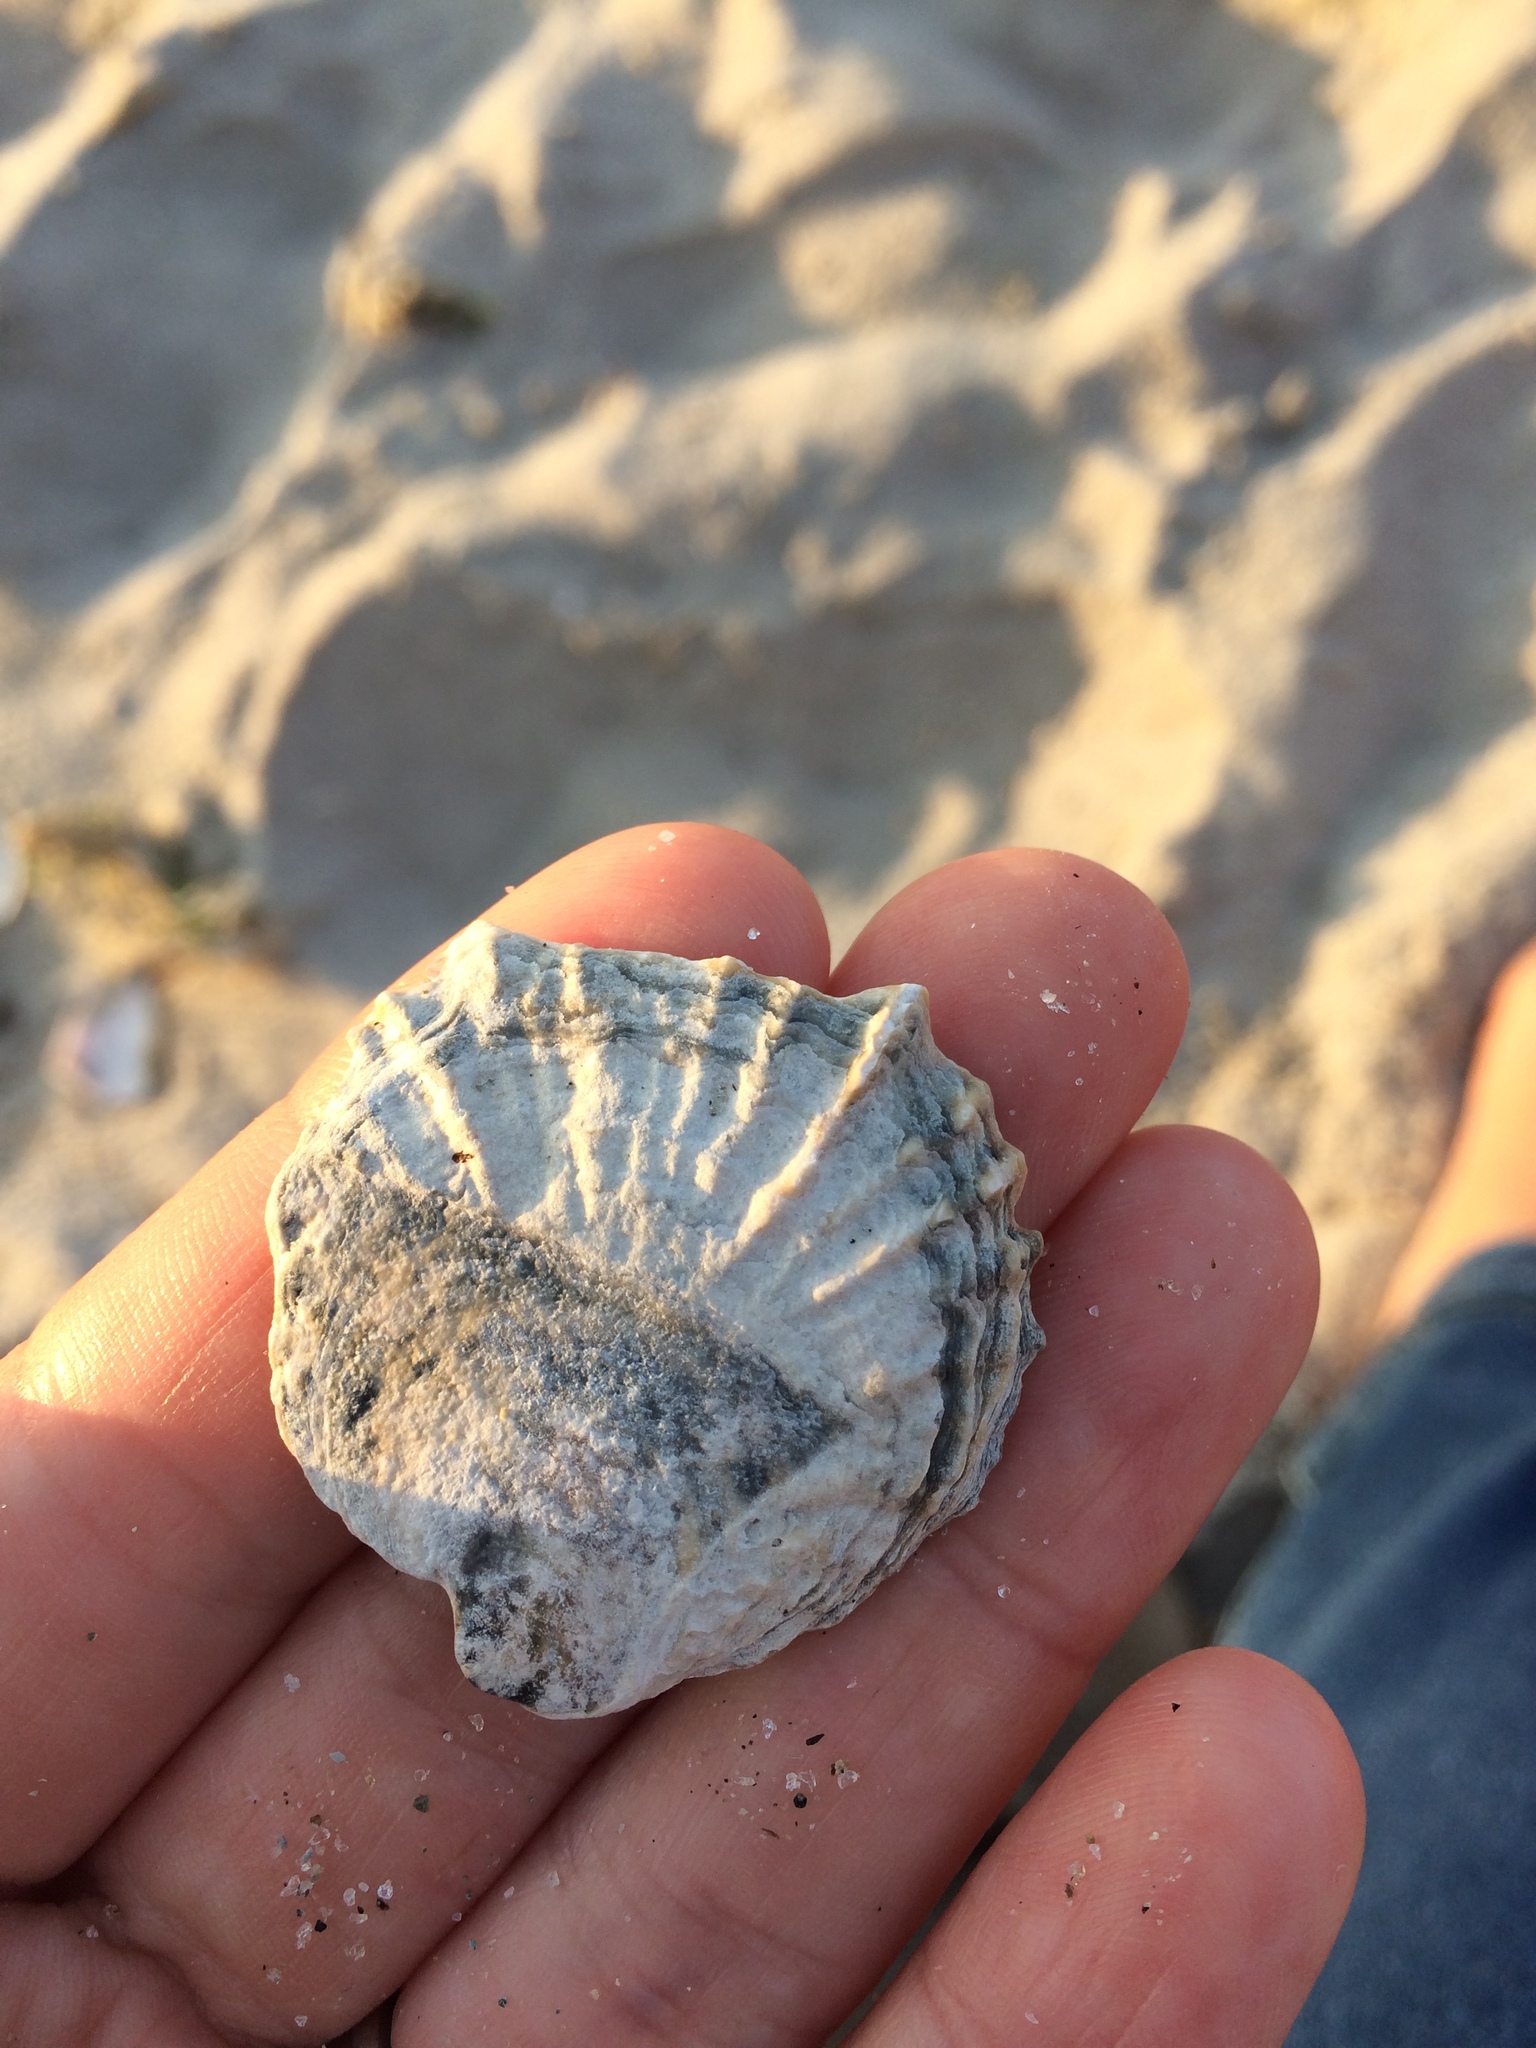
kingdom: Animalia
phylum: Mollusca
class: Bivalvia
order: Ostreida
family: Ostreidae
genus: Ostrea
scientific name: Ostrea chilensis
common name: Chilean oyster
